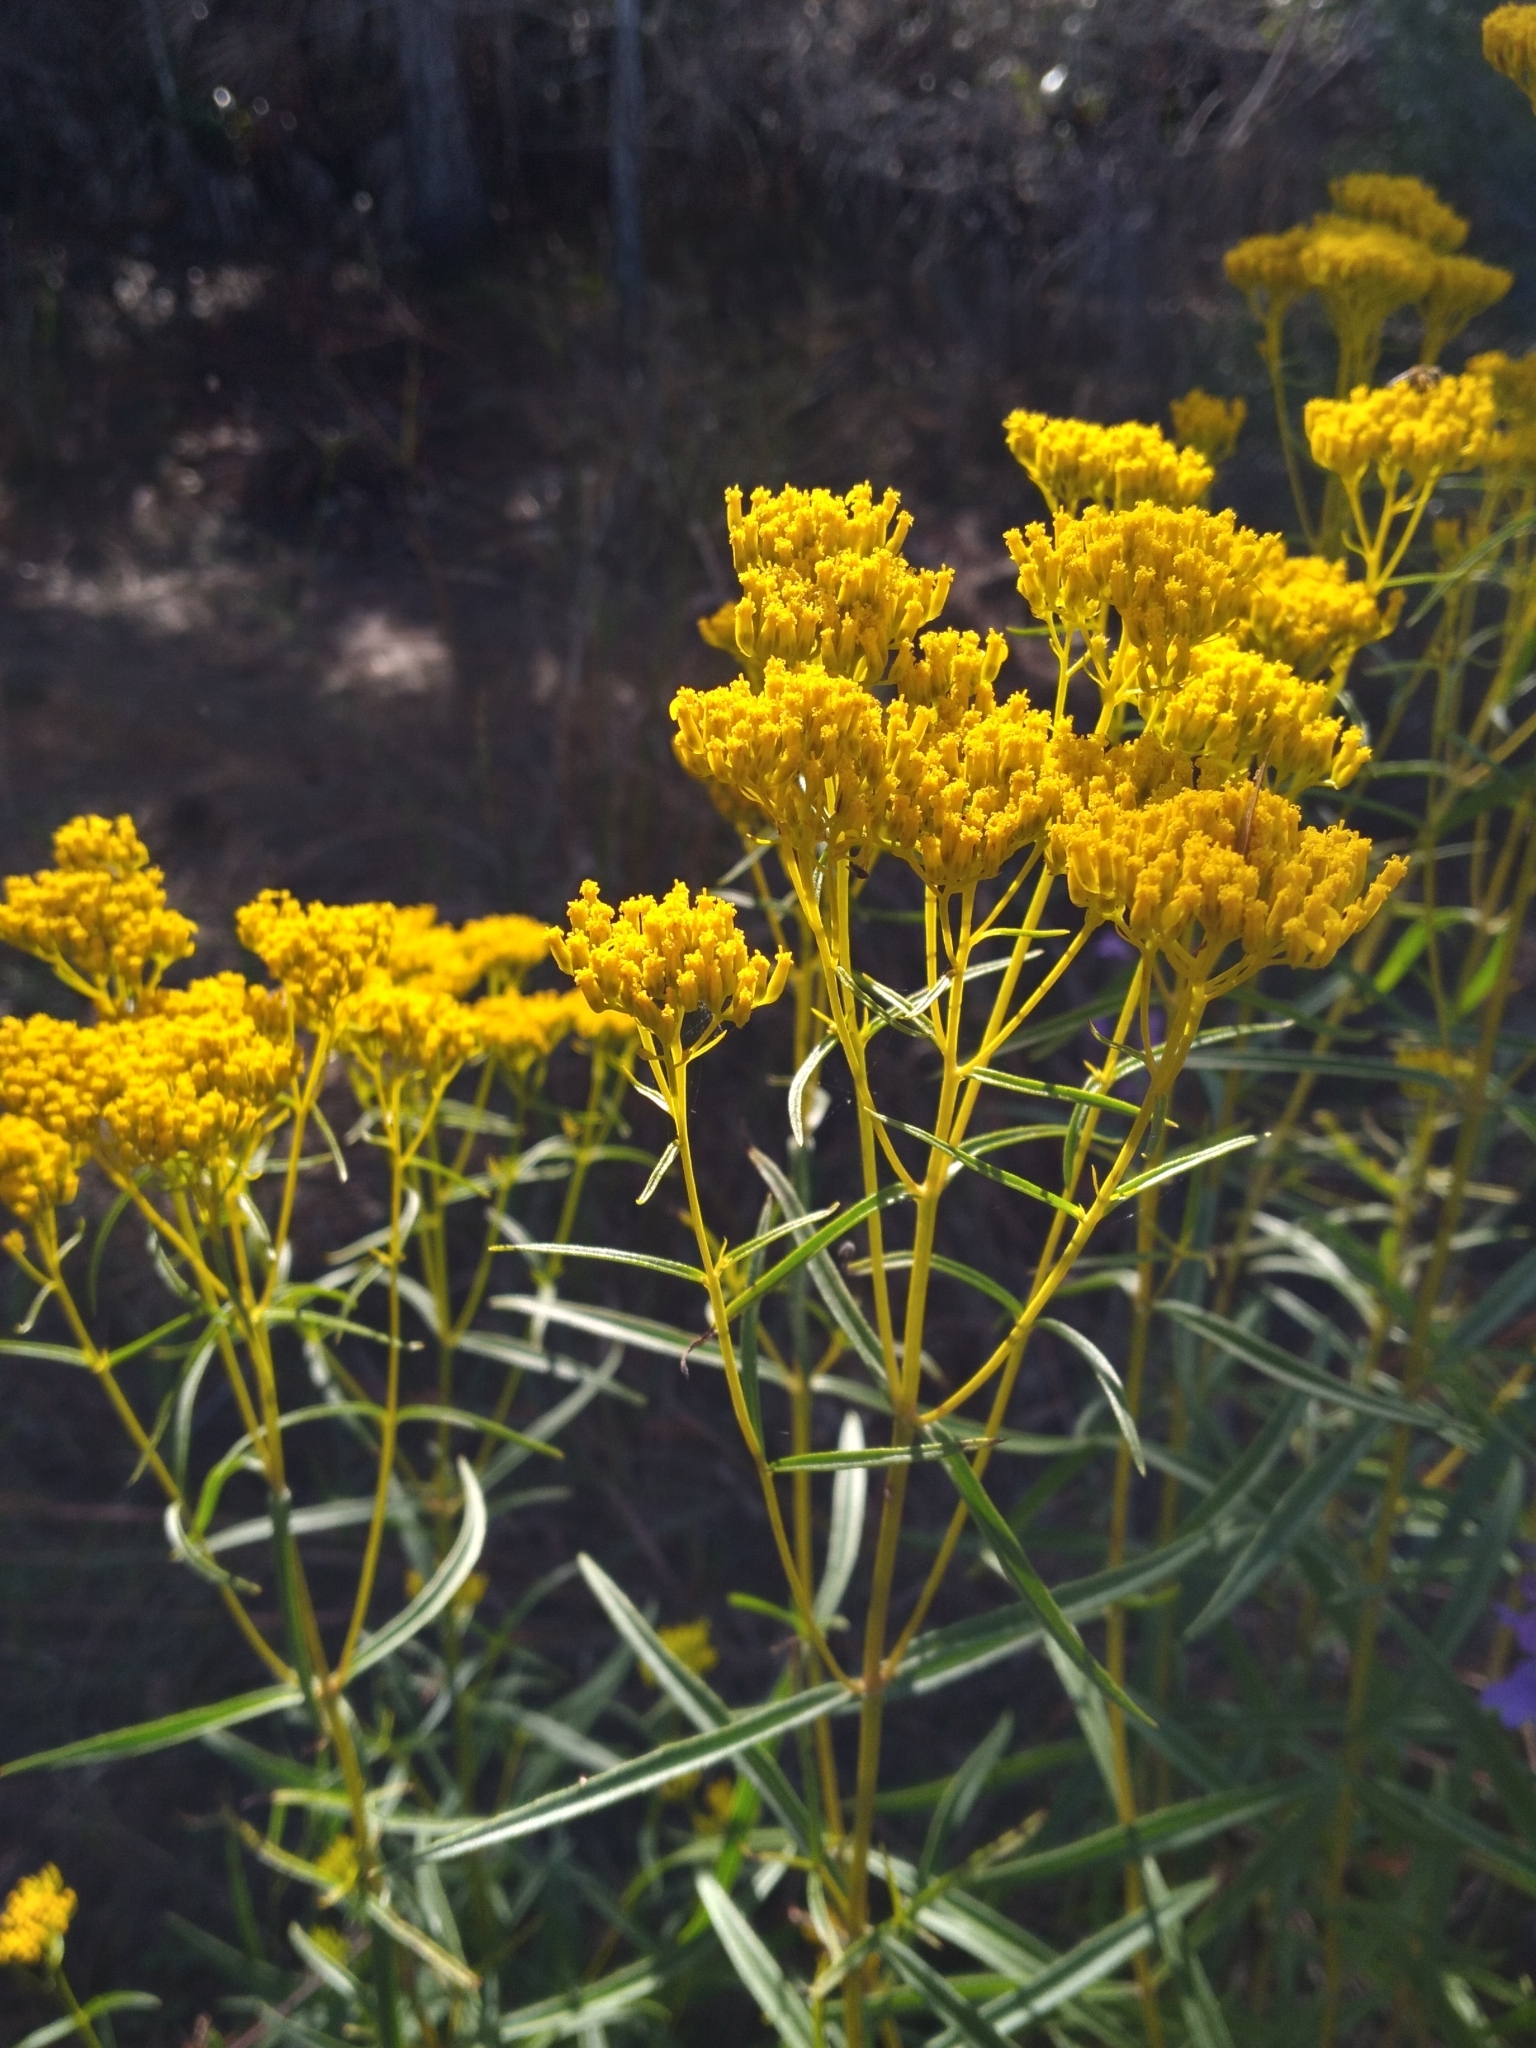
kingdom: Plantae
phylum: Tracheophyta
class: Magnoliopsida
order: Asterales
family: Asteraceae
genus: Flaveria
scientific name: Flaveria linearis
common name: Yellowtop
